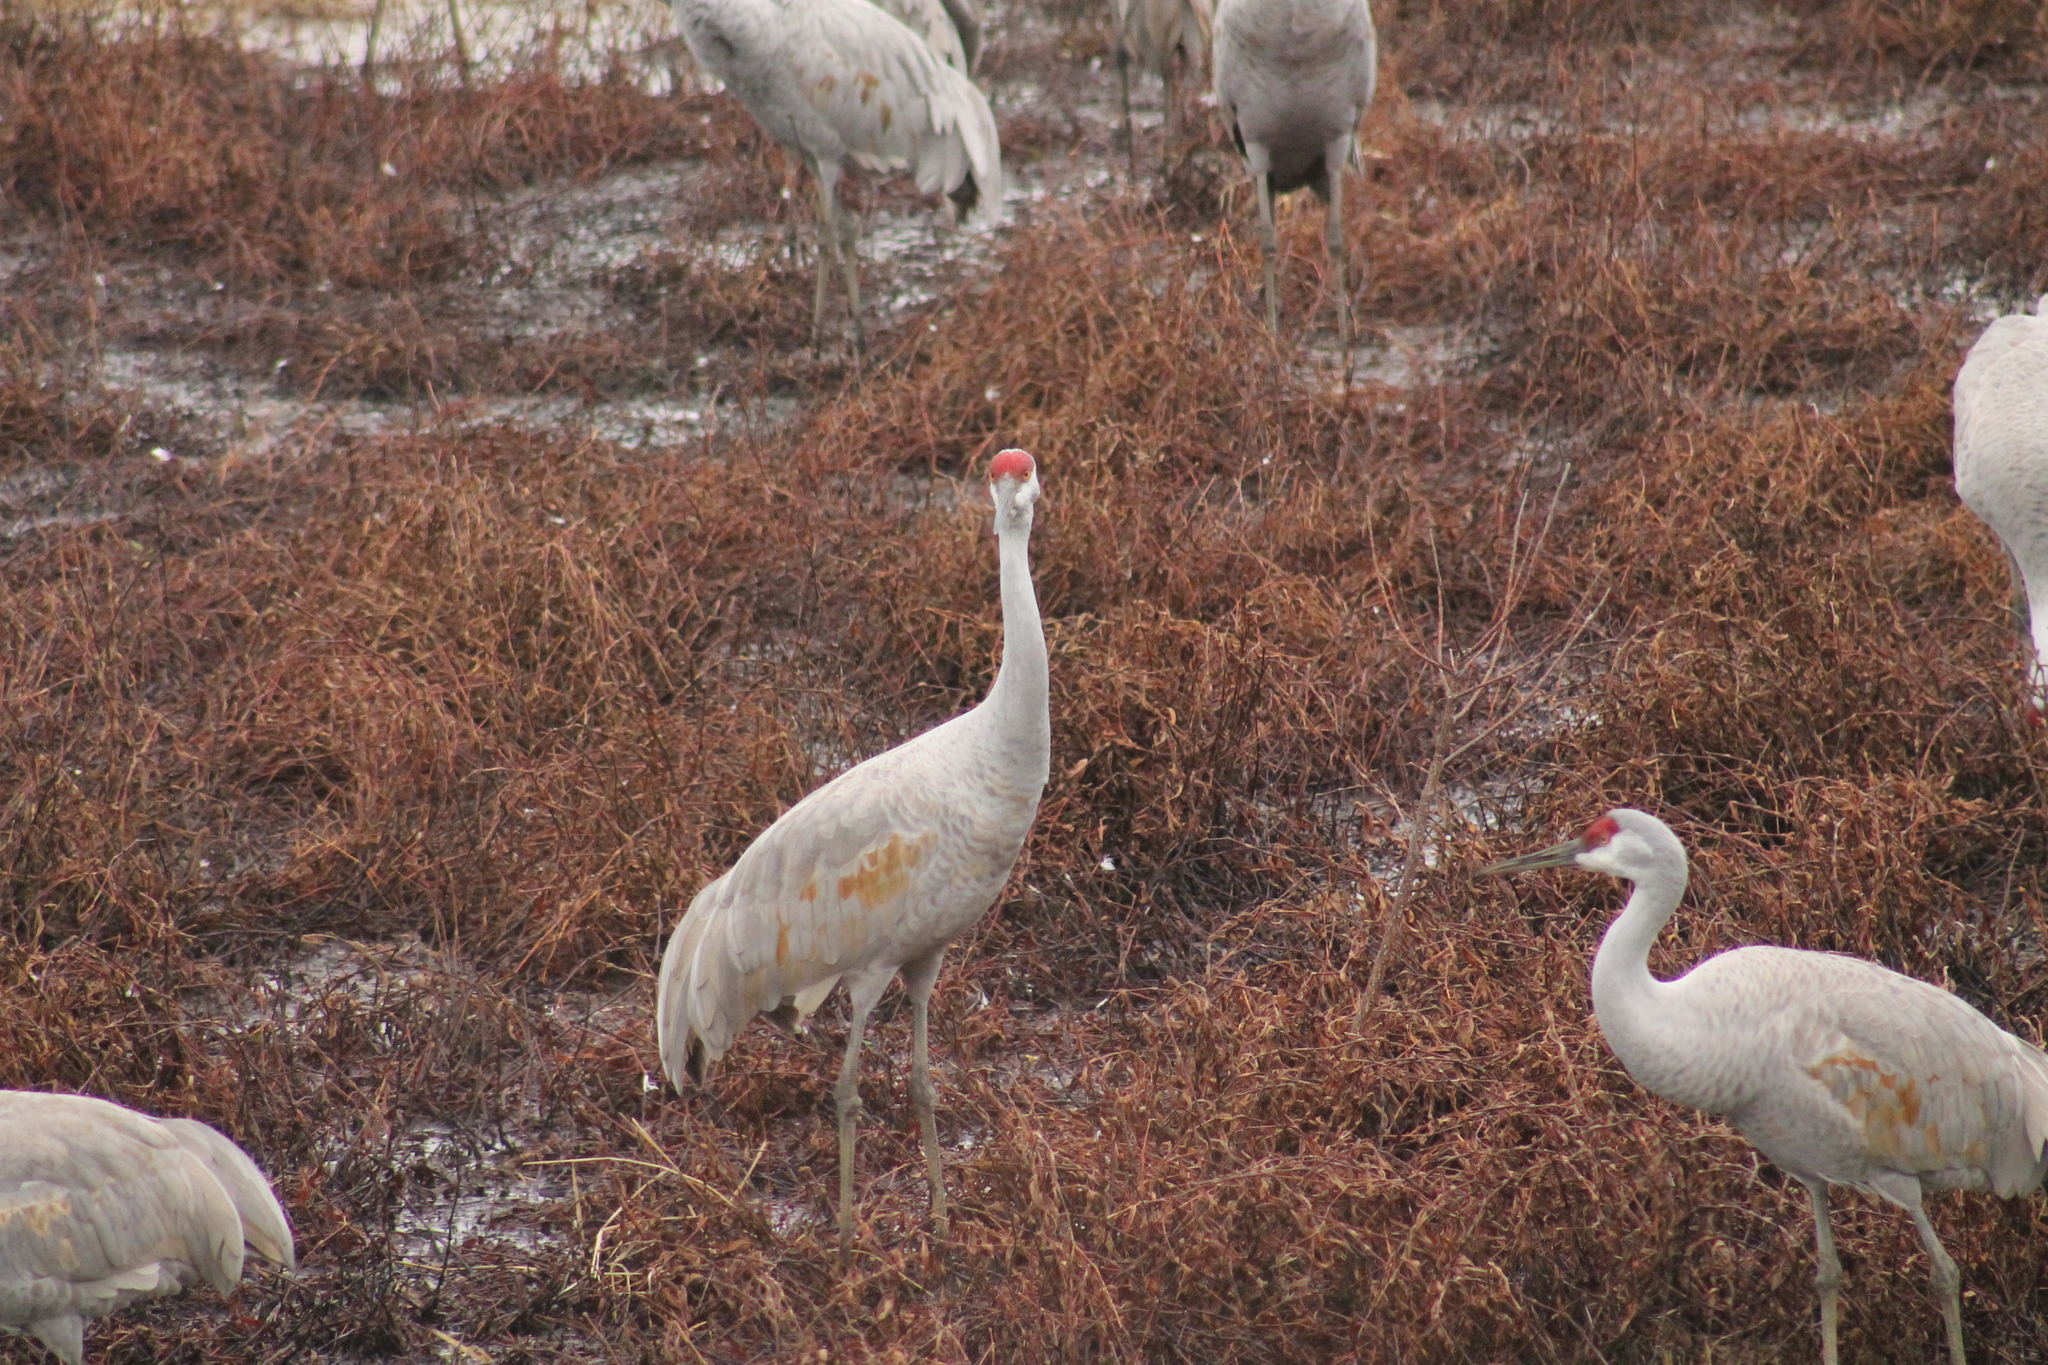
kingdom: Animalia
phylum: Chordata
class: Aves
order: Gruiformes
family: Gruidae
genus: Grus
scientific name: Grus canadensis
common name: Sandhill crane
